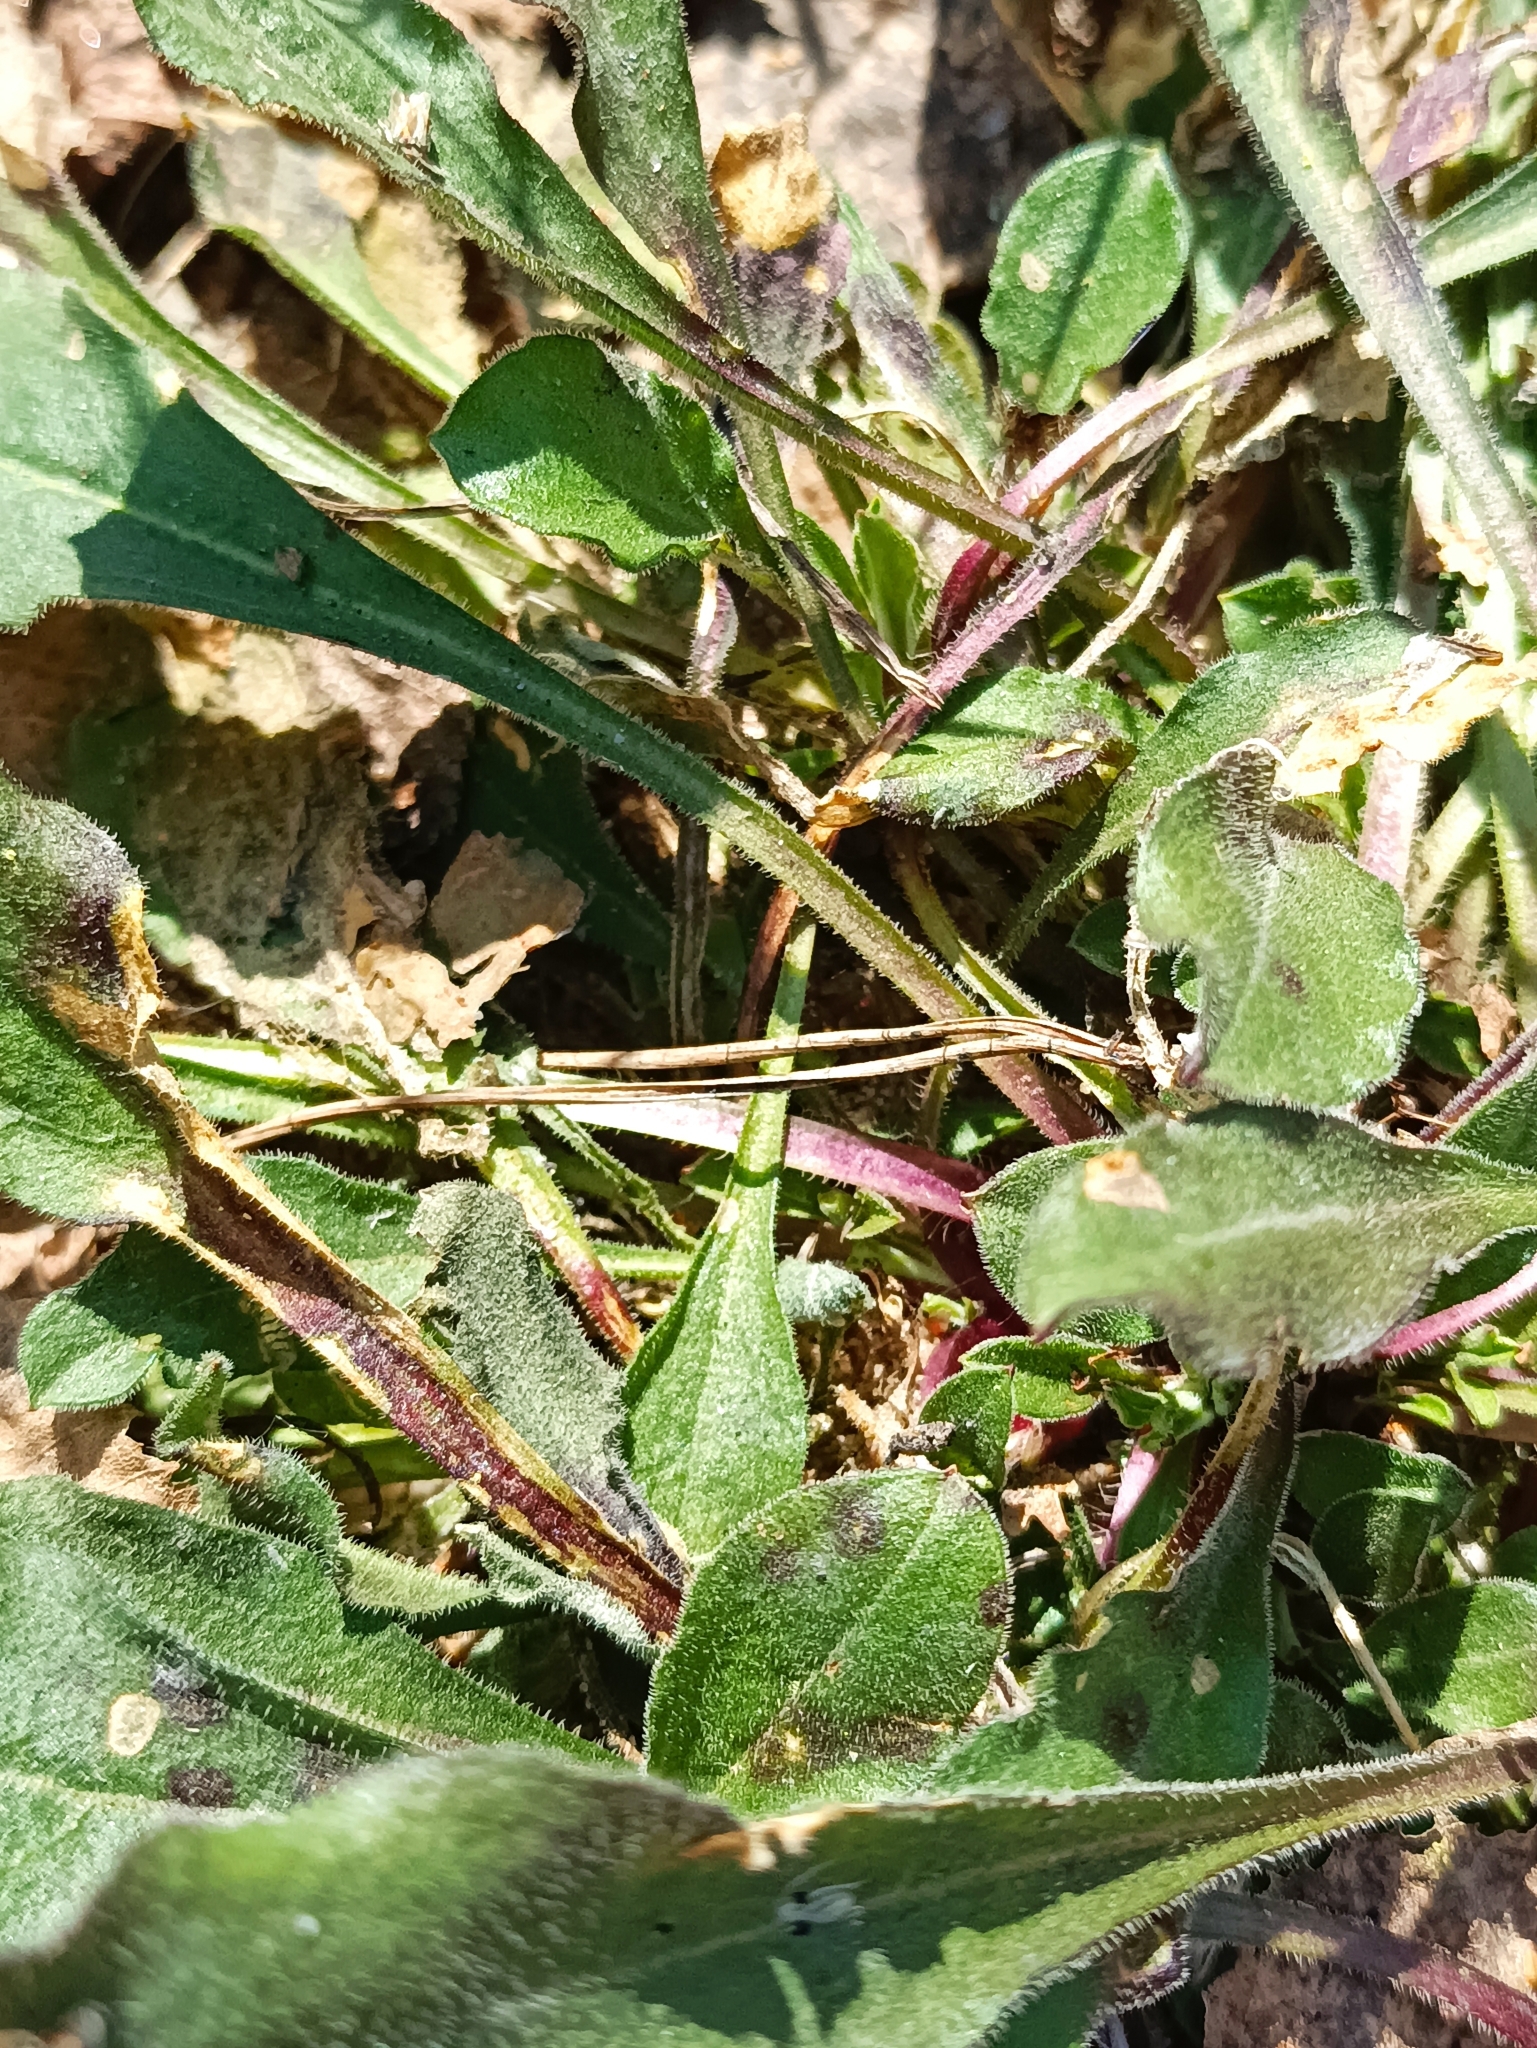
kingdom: Plantae
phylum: Tracheophyta
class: Magnoliopsida
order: Caryophyllales
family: Caryophyllaceae
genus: Silene
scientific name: Silene nutans
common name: Nottingham catchfly
